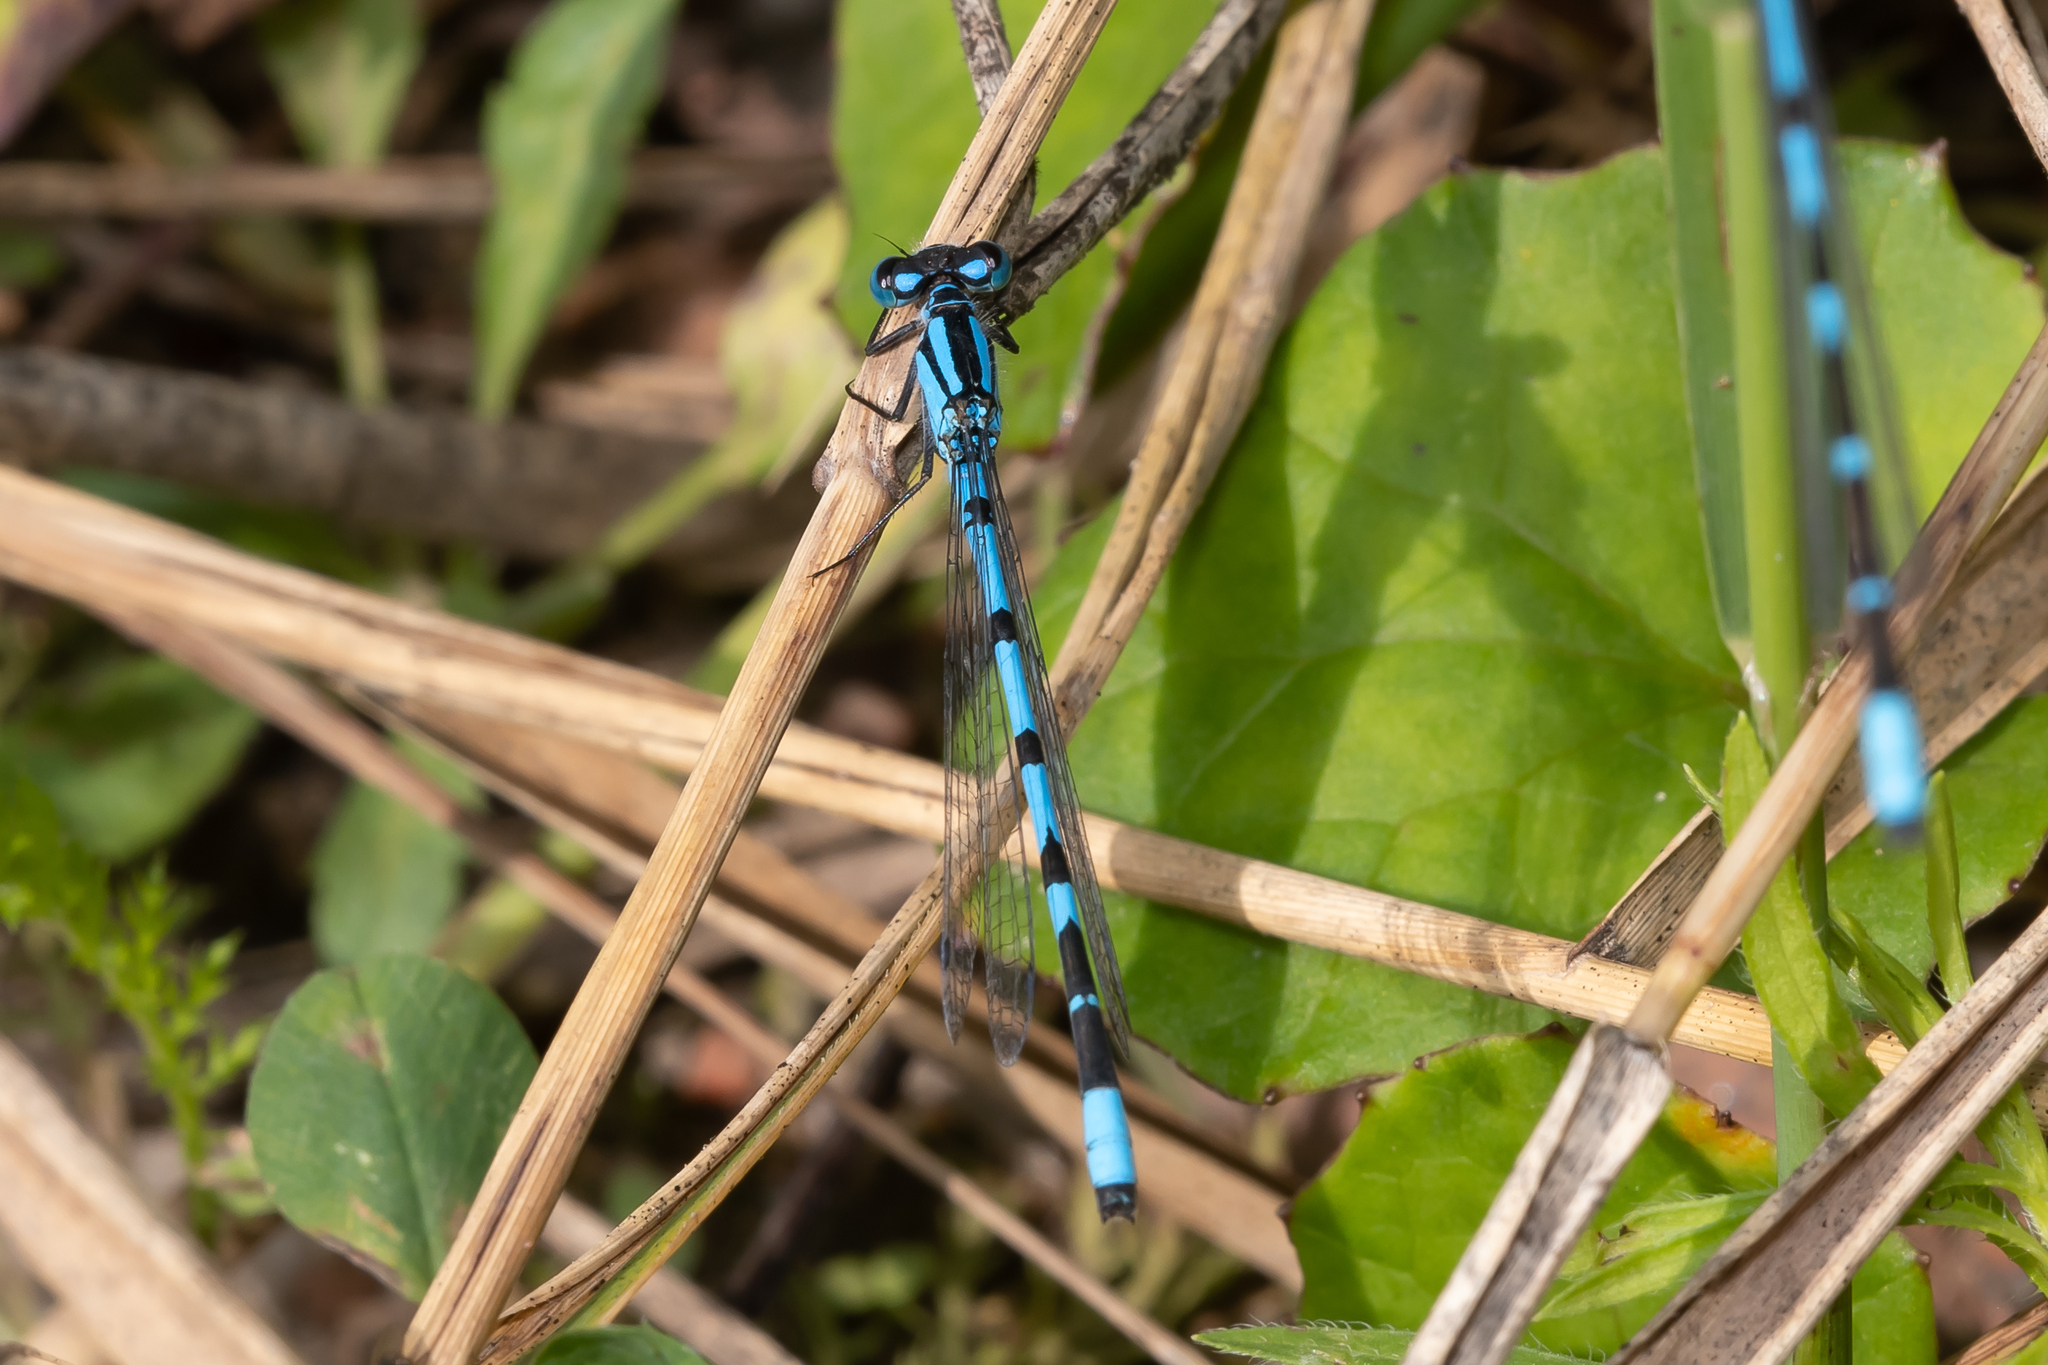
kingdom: Animalia
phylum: Arthropoda
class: Insecta
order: Odonata
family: Coenagrionidae
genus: Enallagma
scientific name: Enallagma cyathigerum
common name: Common blue damselfly
